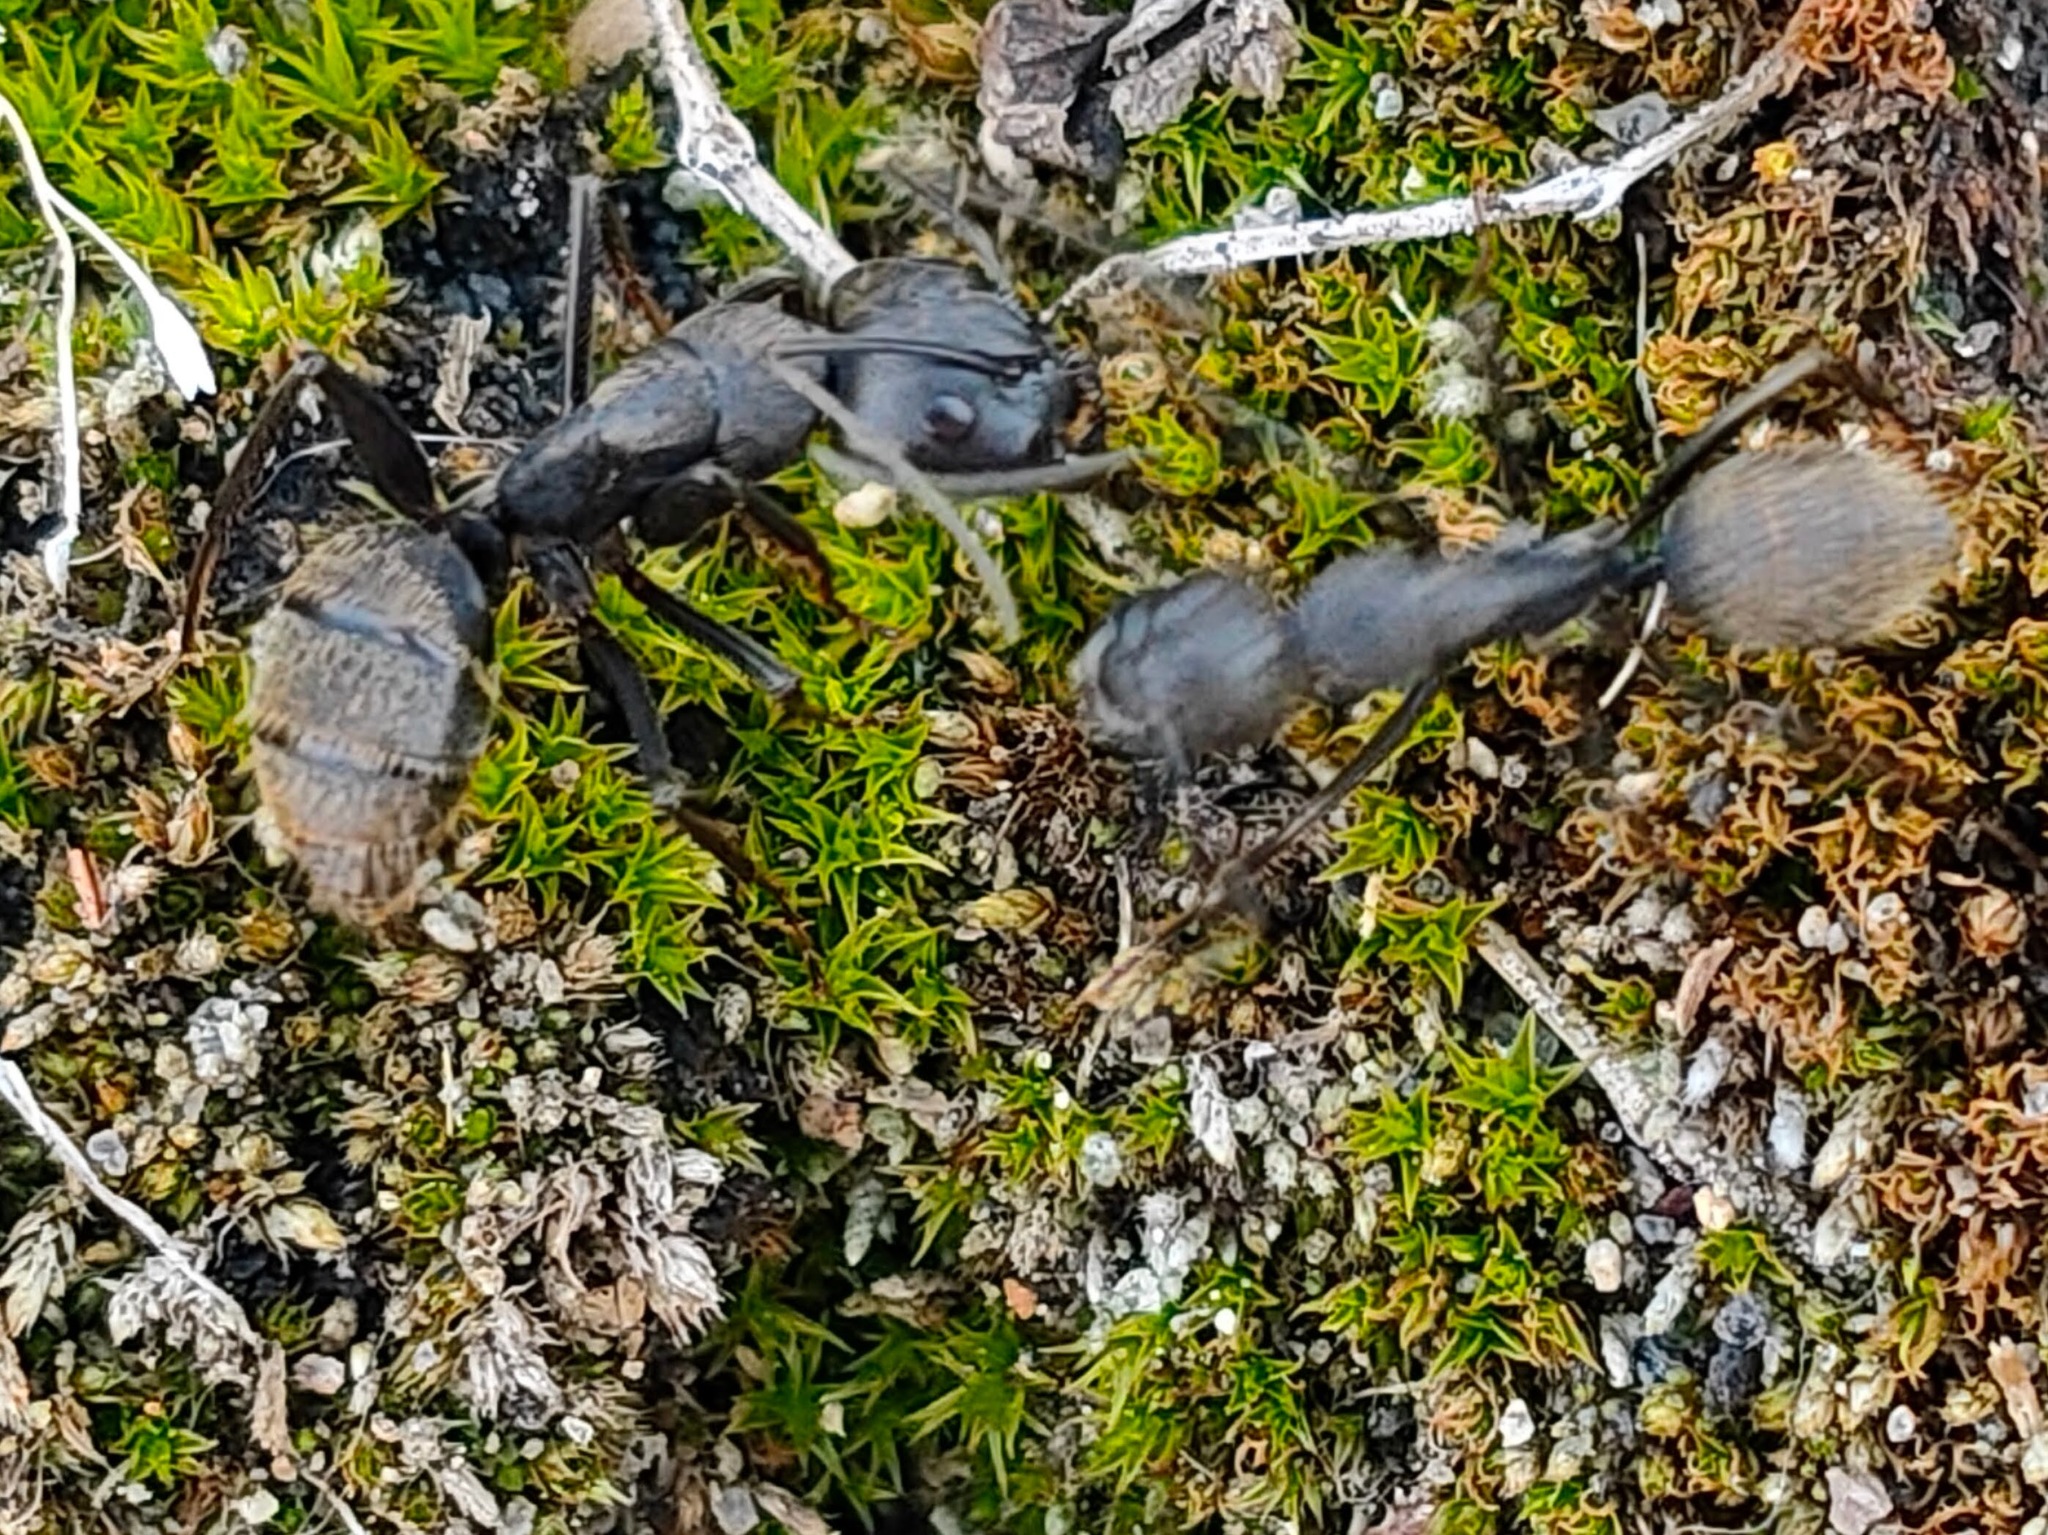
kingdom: Animalia
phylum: Arthropoda
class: Insecta
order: Hymenoptera
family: Formicidae
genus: Camponotus
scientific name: Camponotus japonicus
